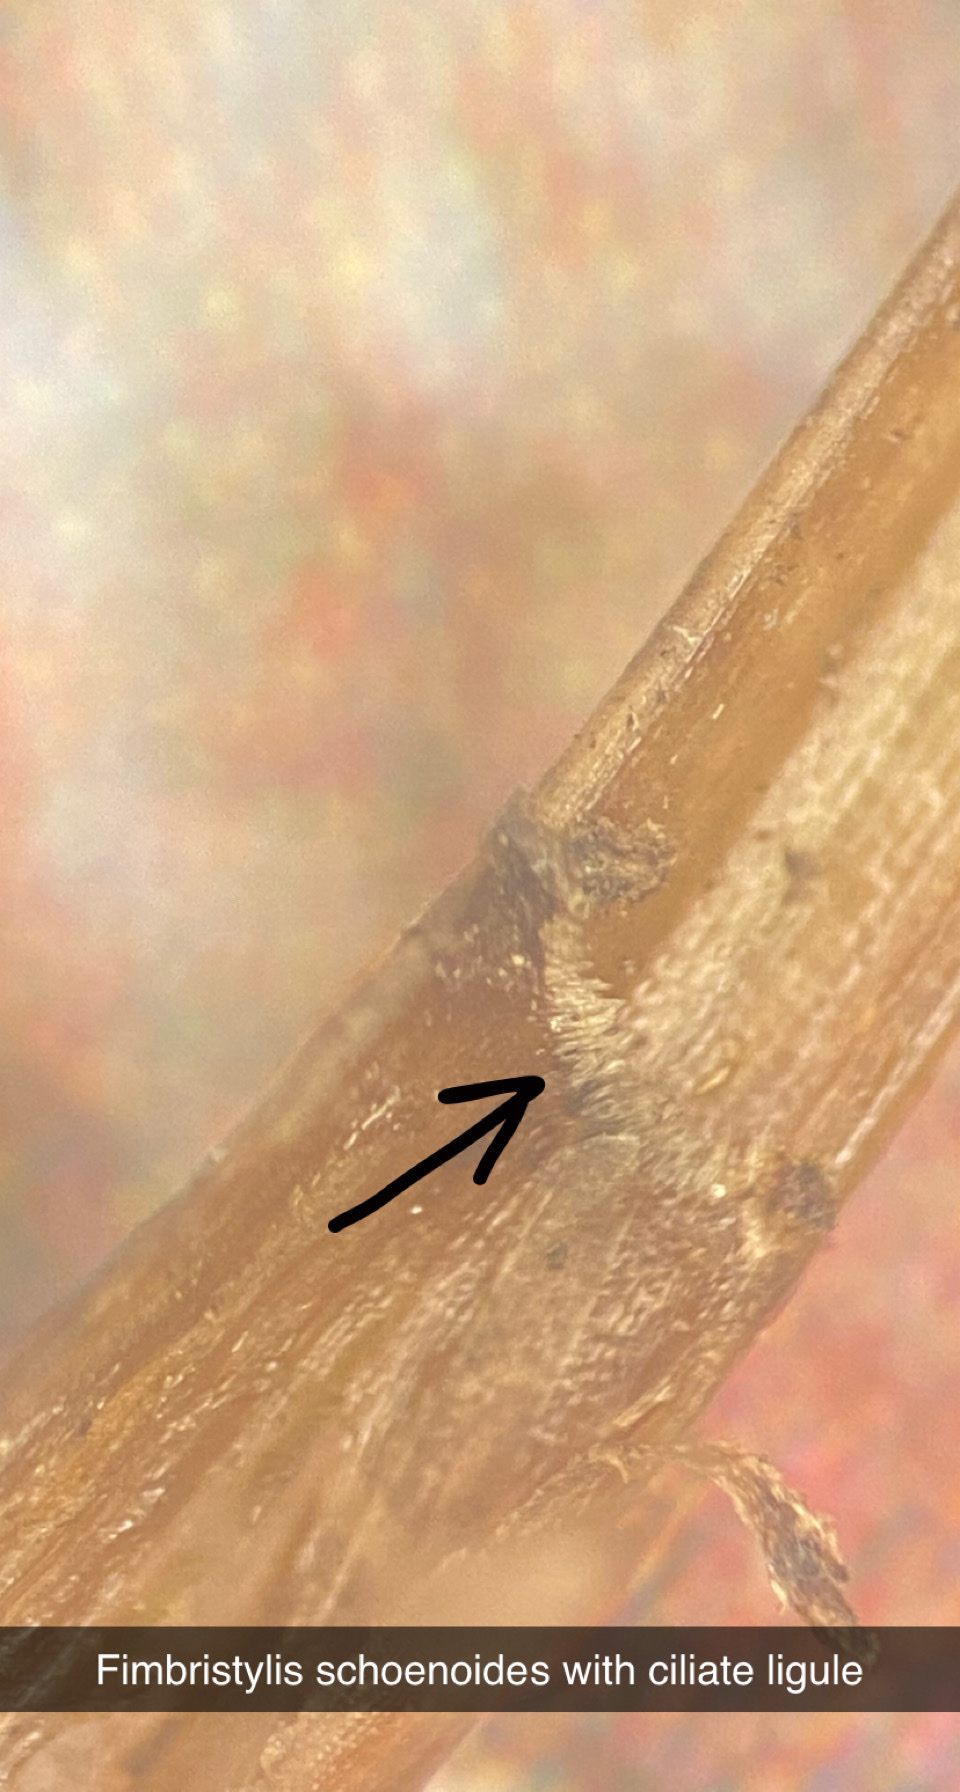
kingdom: Plantae
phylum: Tracheophyta
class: Liliopsida
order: Poales
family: Cyperaceae
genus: Fimbristylis
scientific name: Fimbristylis schoenoides
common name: Ditch fimbry
